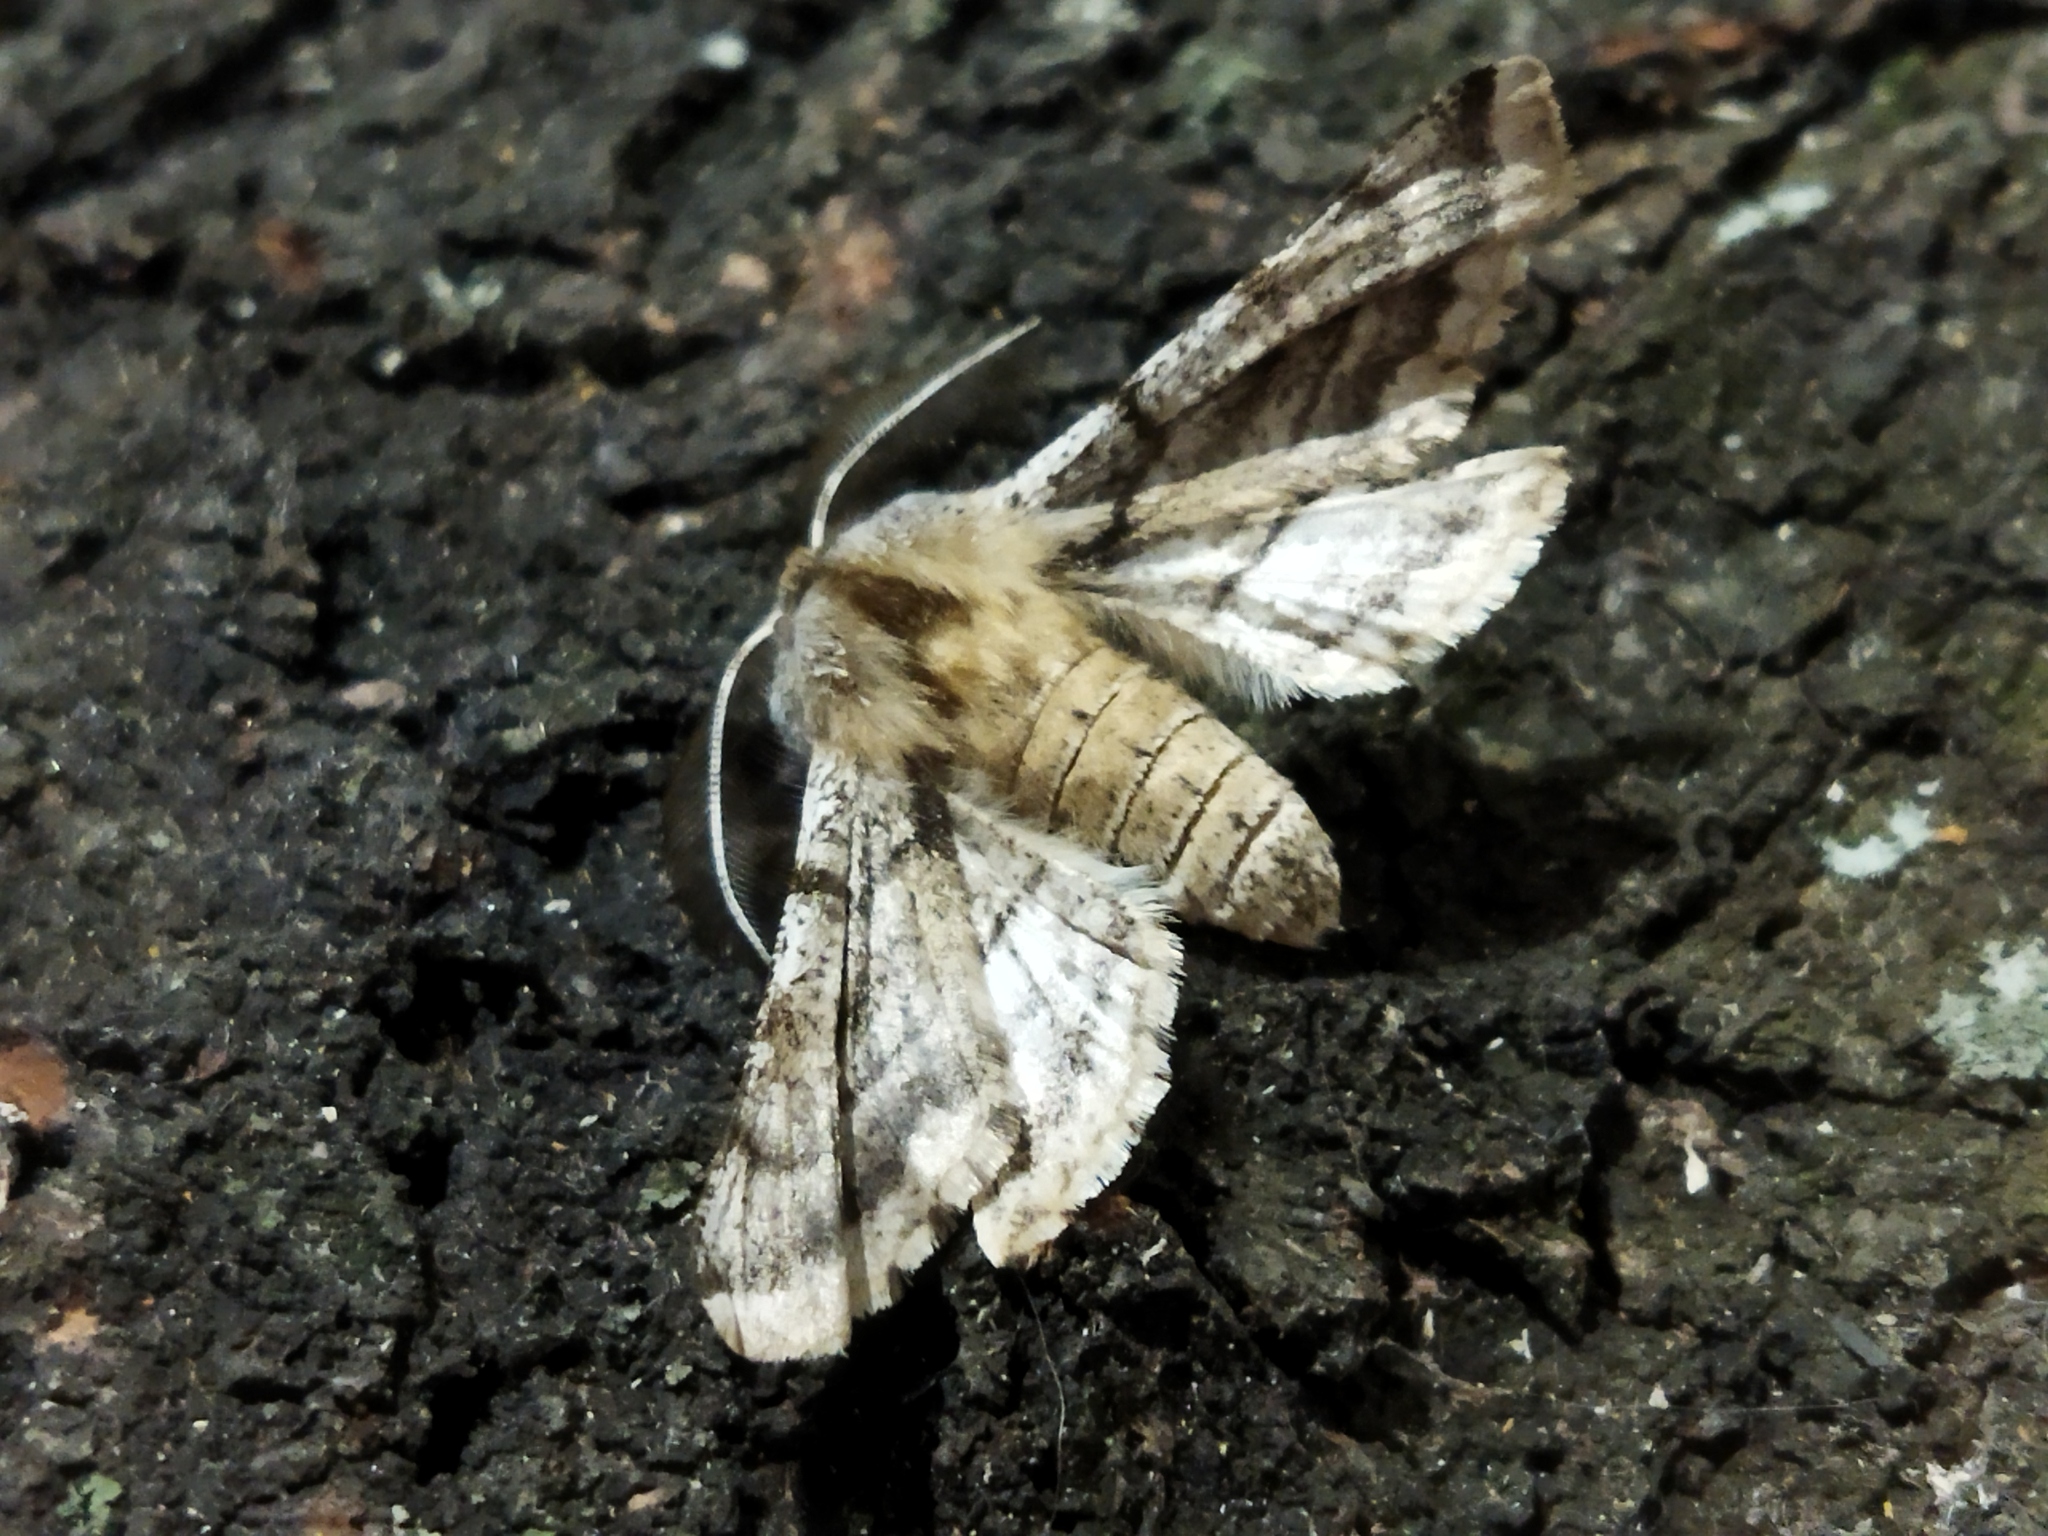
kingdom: Animalia
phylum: Arthropoda
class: Insecta
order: Lepidoptera
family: Geometridae
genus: Apochima
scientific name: Apochima flabellaria
